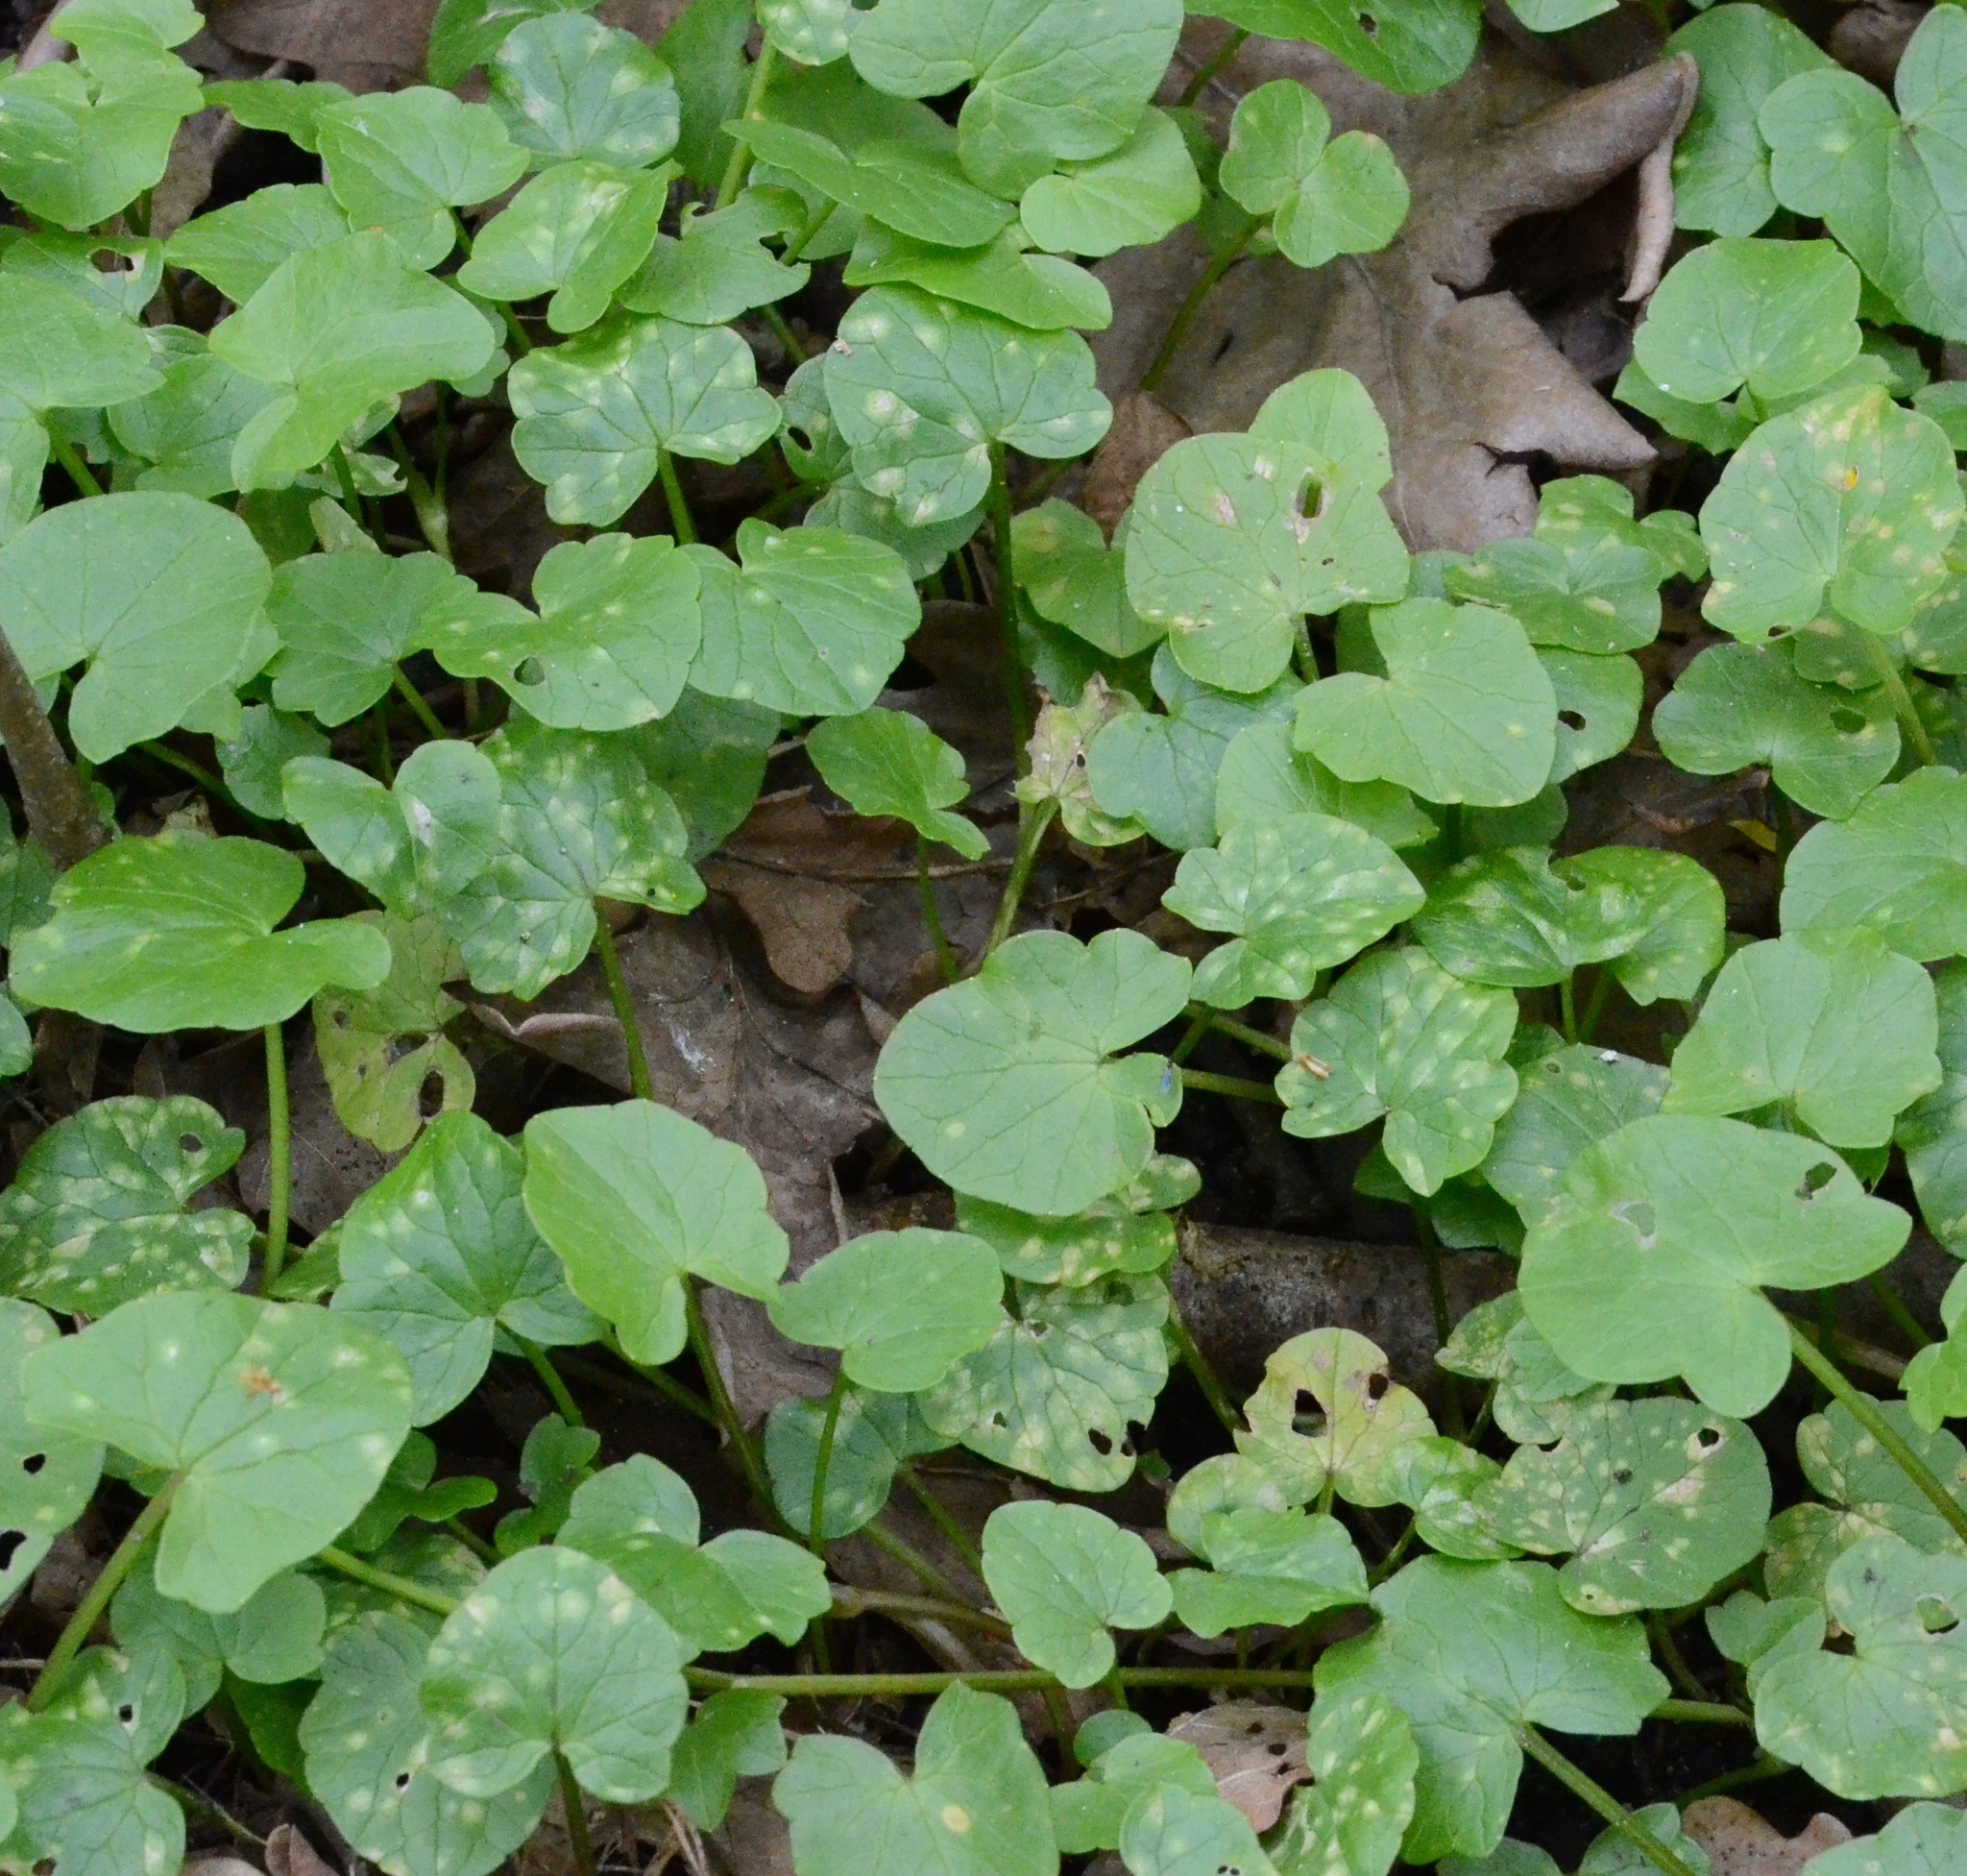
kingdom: Plantae
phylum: Tracheophyta
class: Magnoliopsida
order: Ranunculales
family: Ranunculaceae
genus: Ficaria
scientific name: Ficaria verna
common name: Lesser celandine
